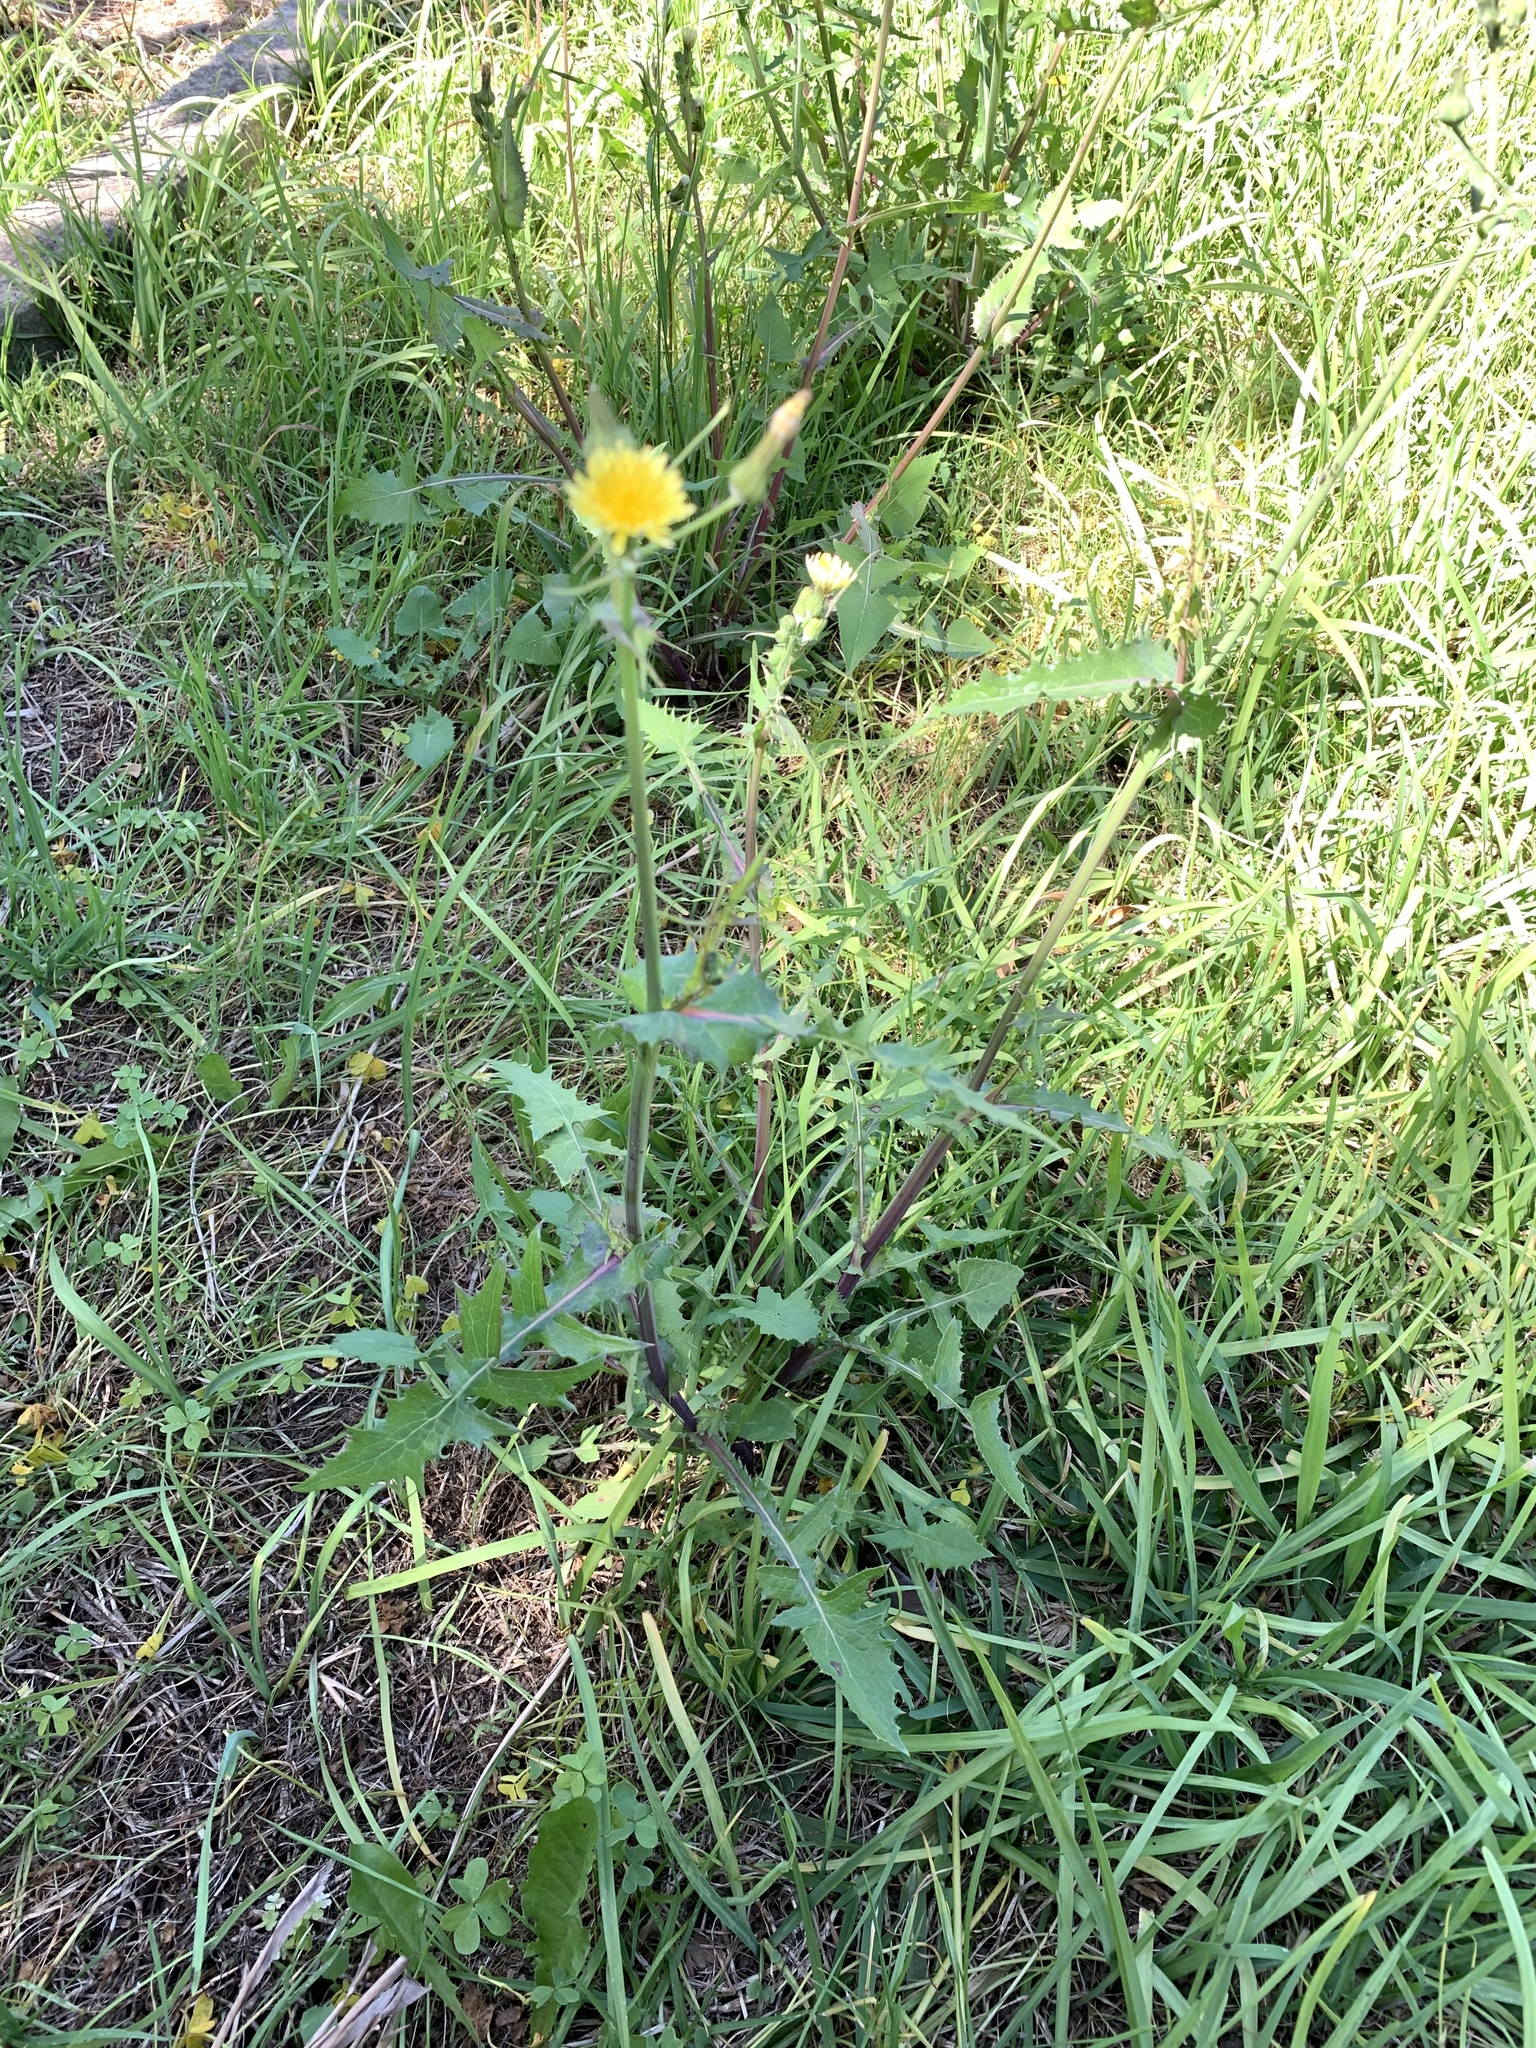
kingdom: Plantae
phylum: Tracheophyta
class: Magnoliopsida
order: Asterales
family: Asteraceae
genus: Sonchus
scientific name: Sonchus oleraceus
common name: Common sowthistle
